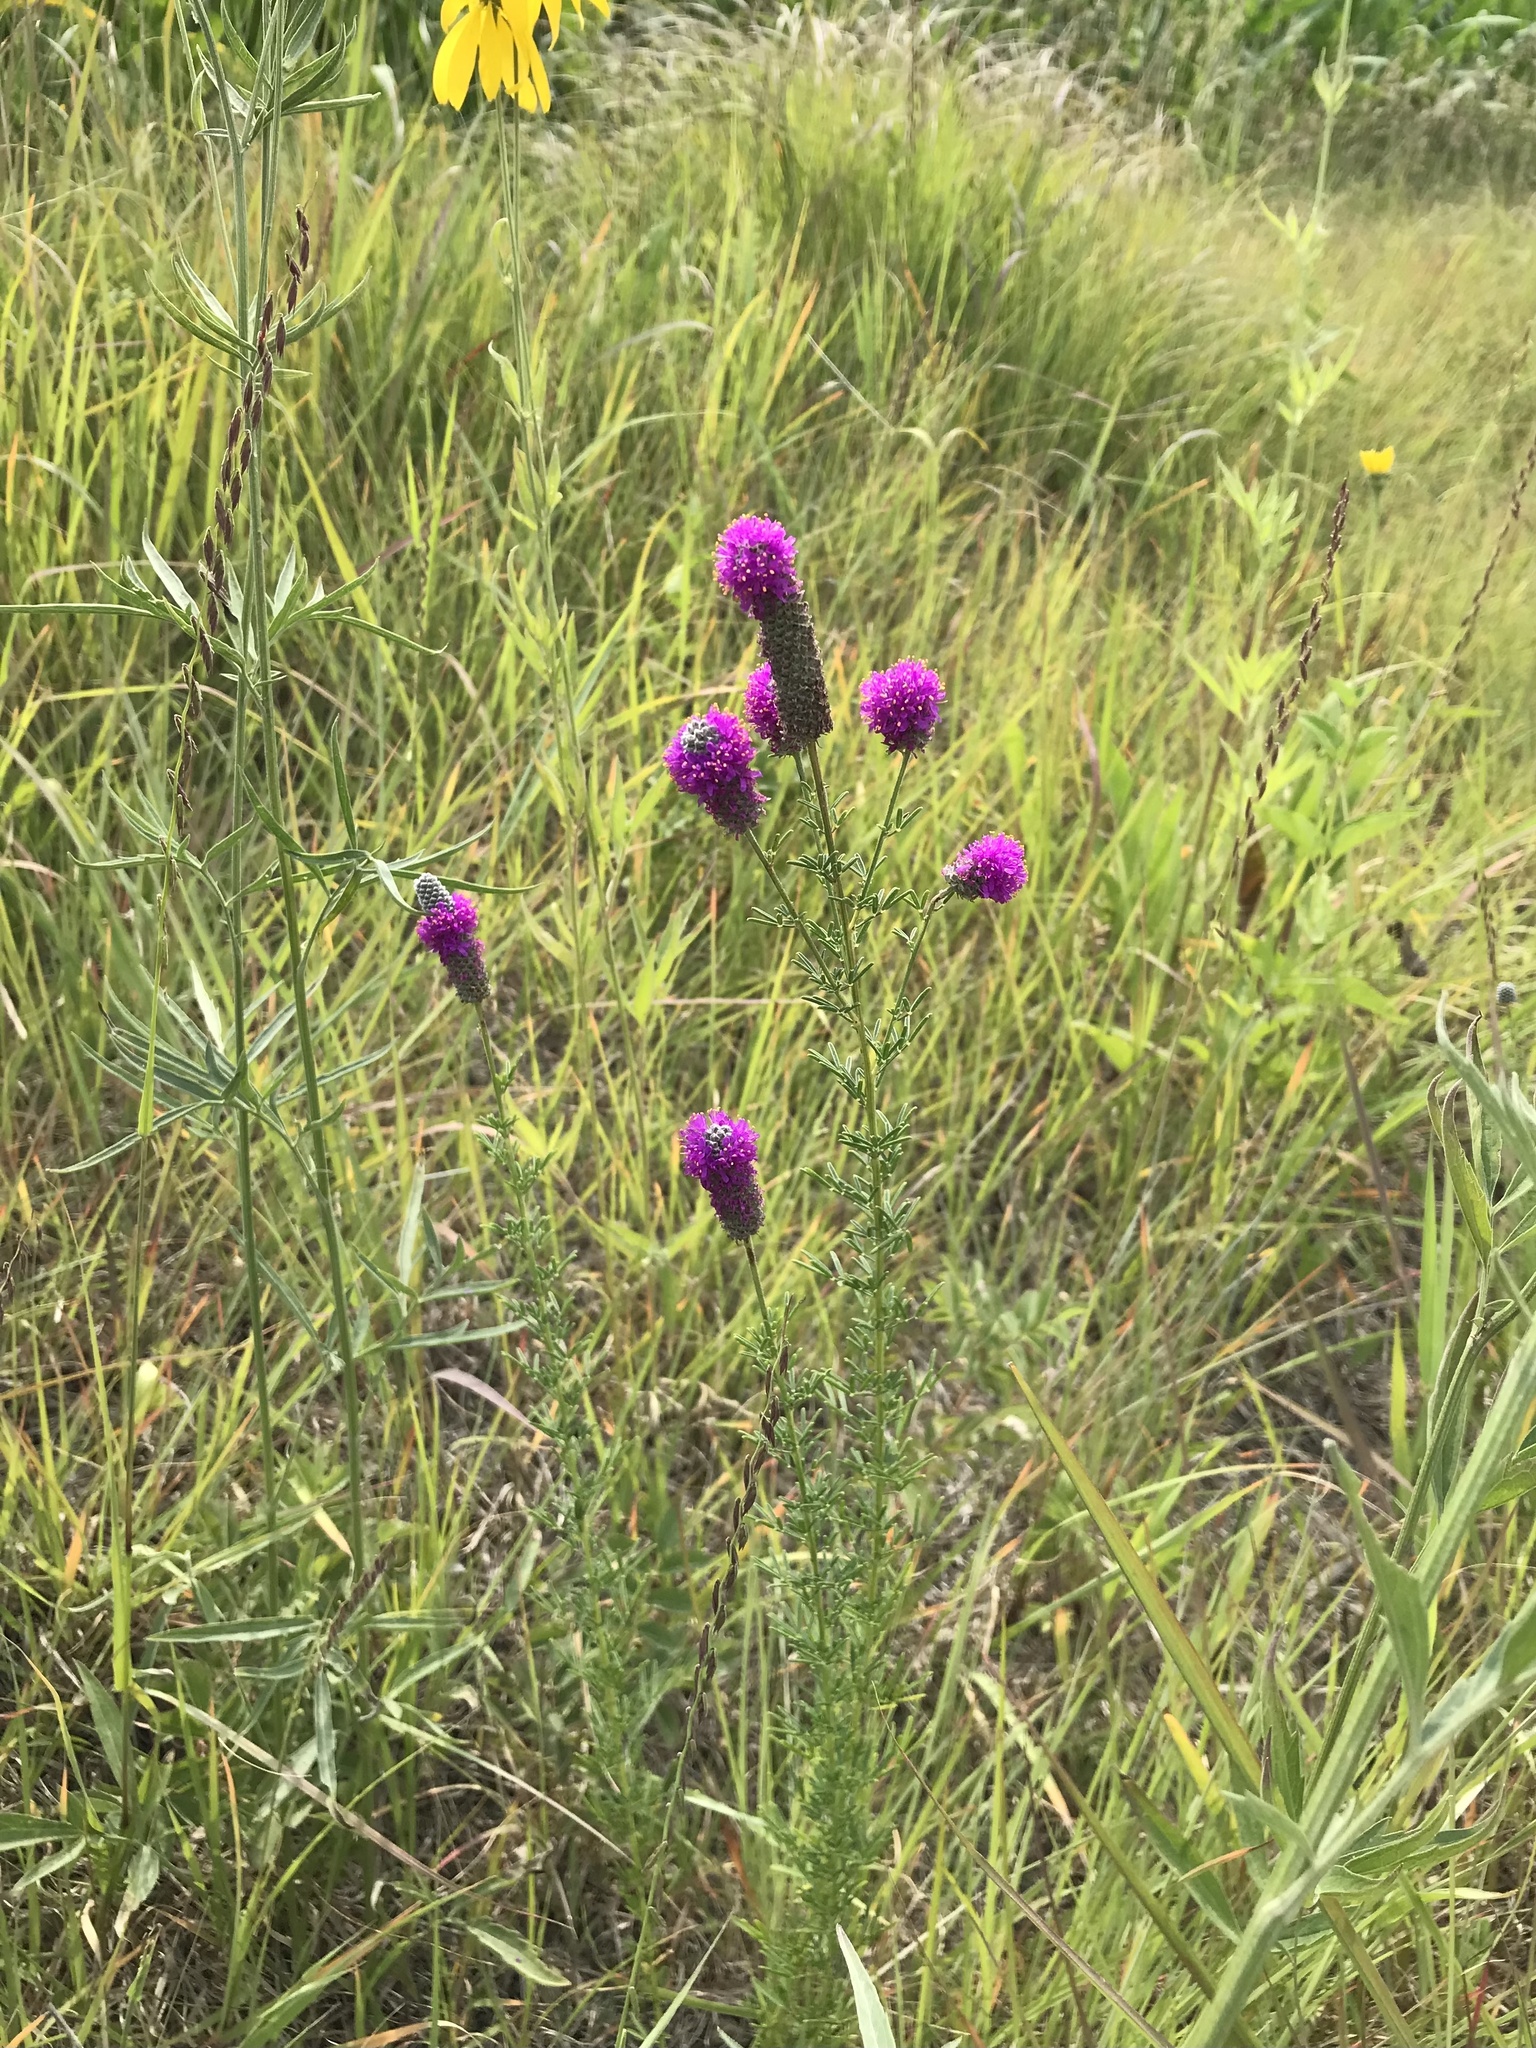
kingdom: Plantae
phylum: Tracheophyta
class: Magnoliopsida
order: Fabales
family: Fabaceae
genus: Dalea
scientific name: Dalea purpurea
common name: Purple prairie-clover
